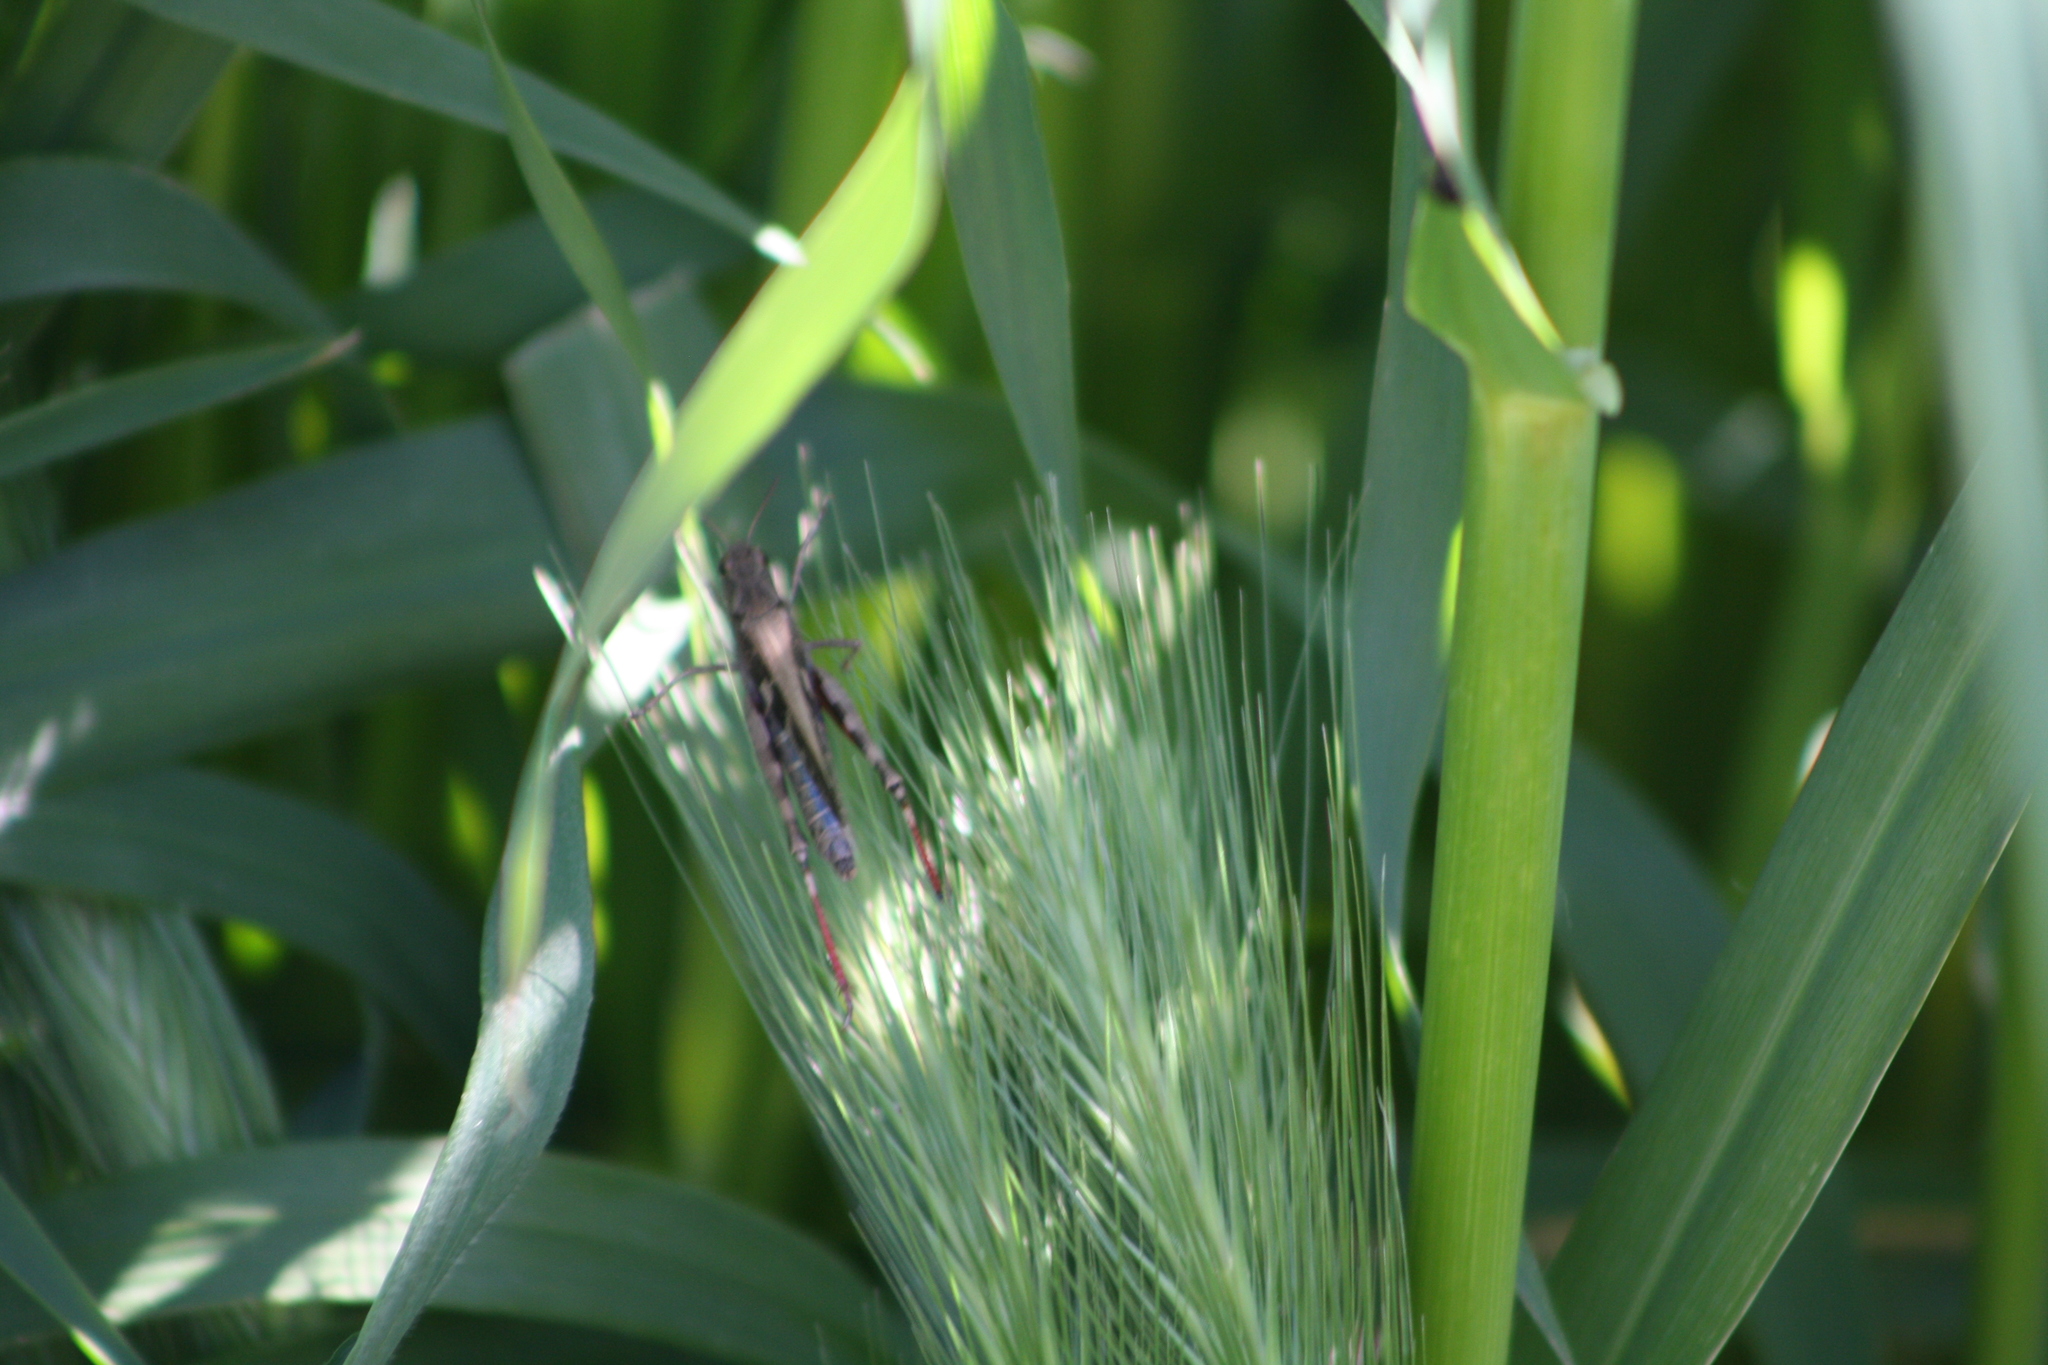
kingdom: Animalia
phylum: Arthropoda
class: Insecta
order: Orthoptera
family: Acrididae
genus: Aiolopus
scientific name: Aiolopus strepens
